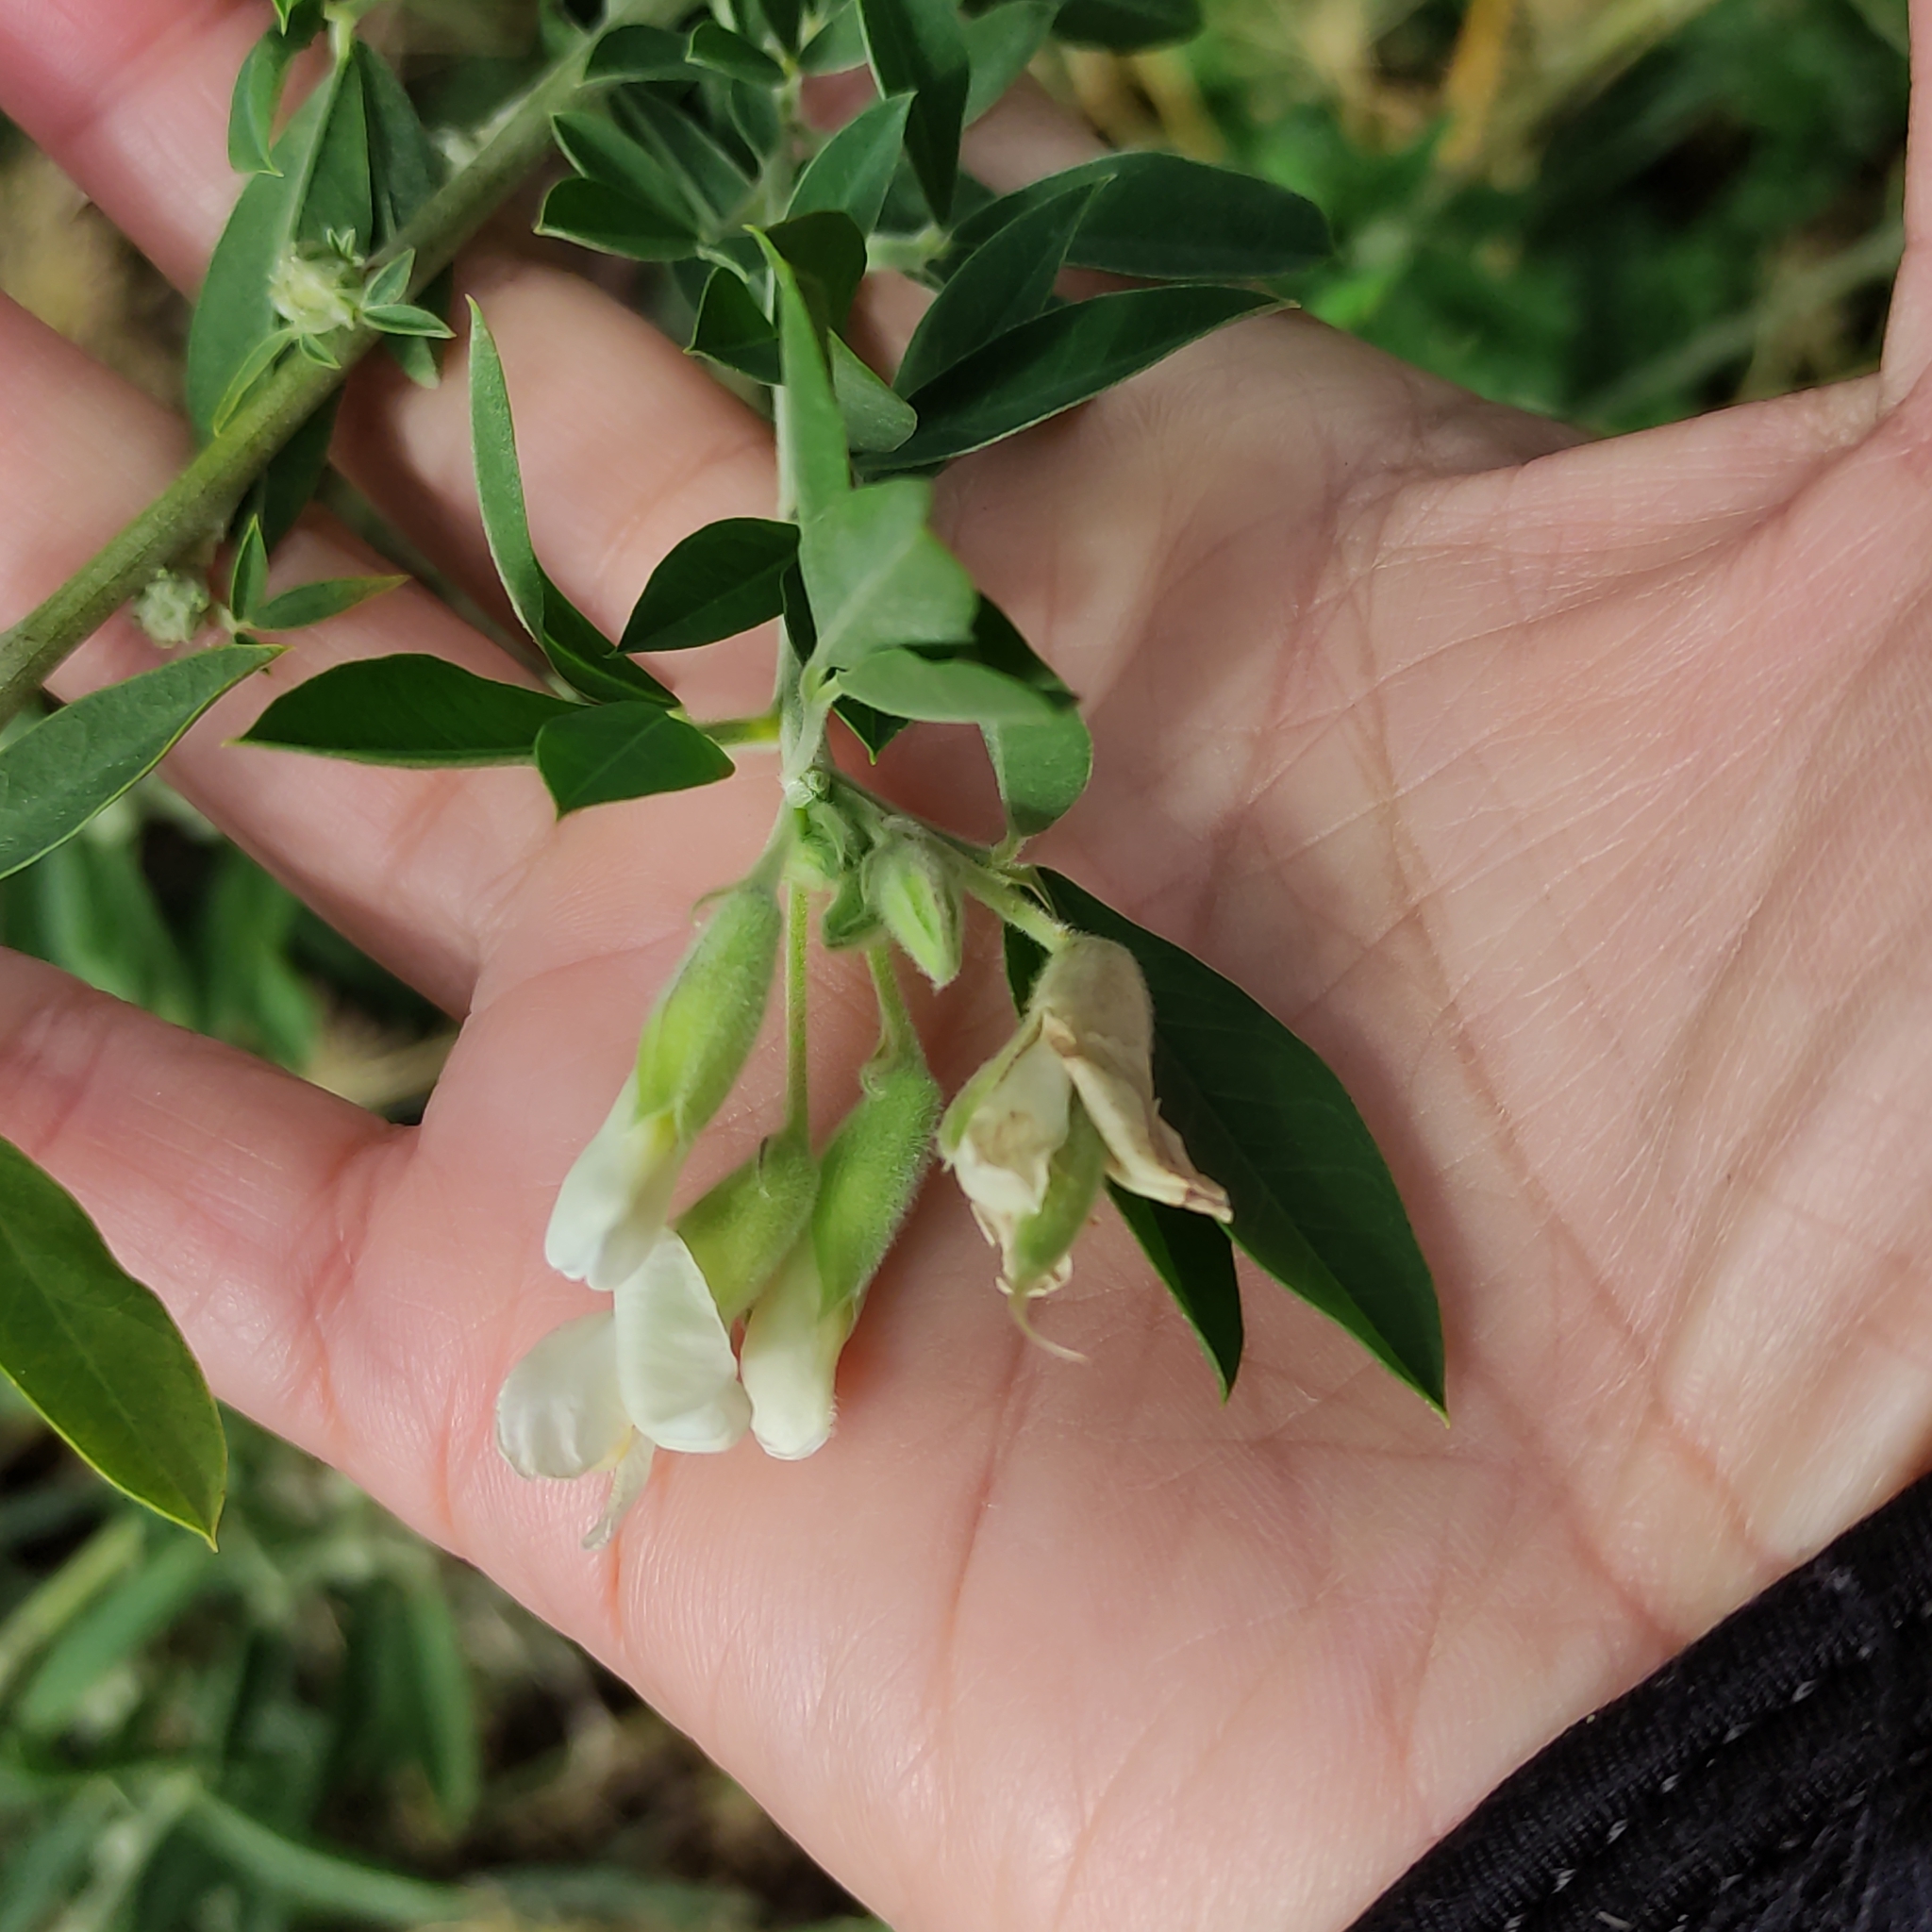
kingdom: Plantae
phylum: Tracheophyta
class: Magnoliopsida
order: Fabales
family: Fabaceae
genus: Chamaecytisus
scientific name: Chamaecytisus prolifer
